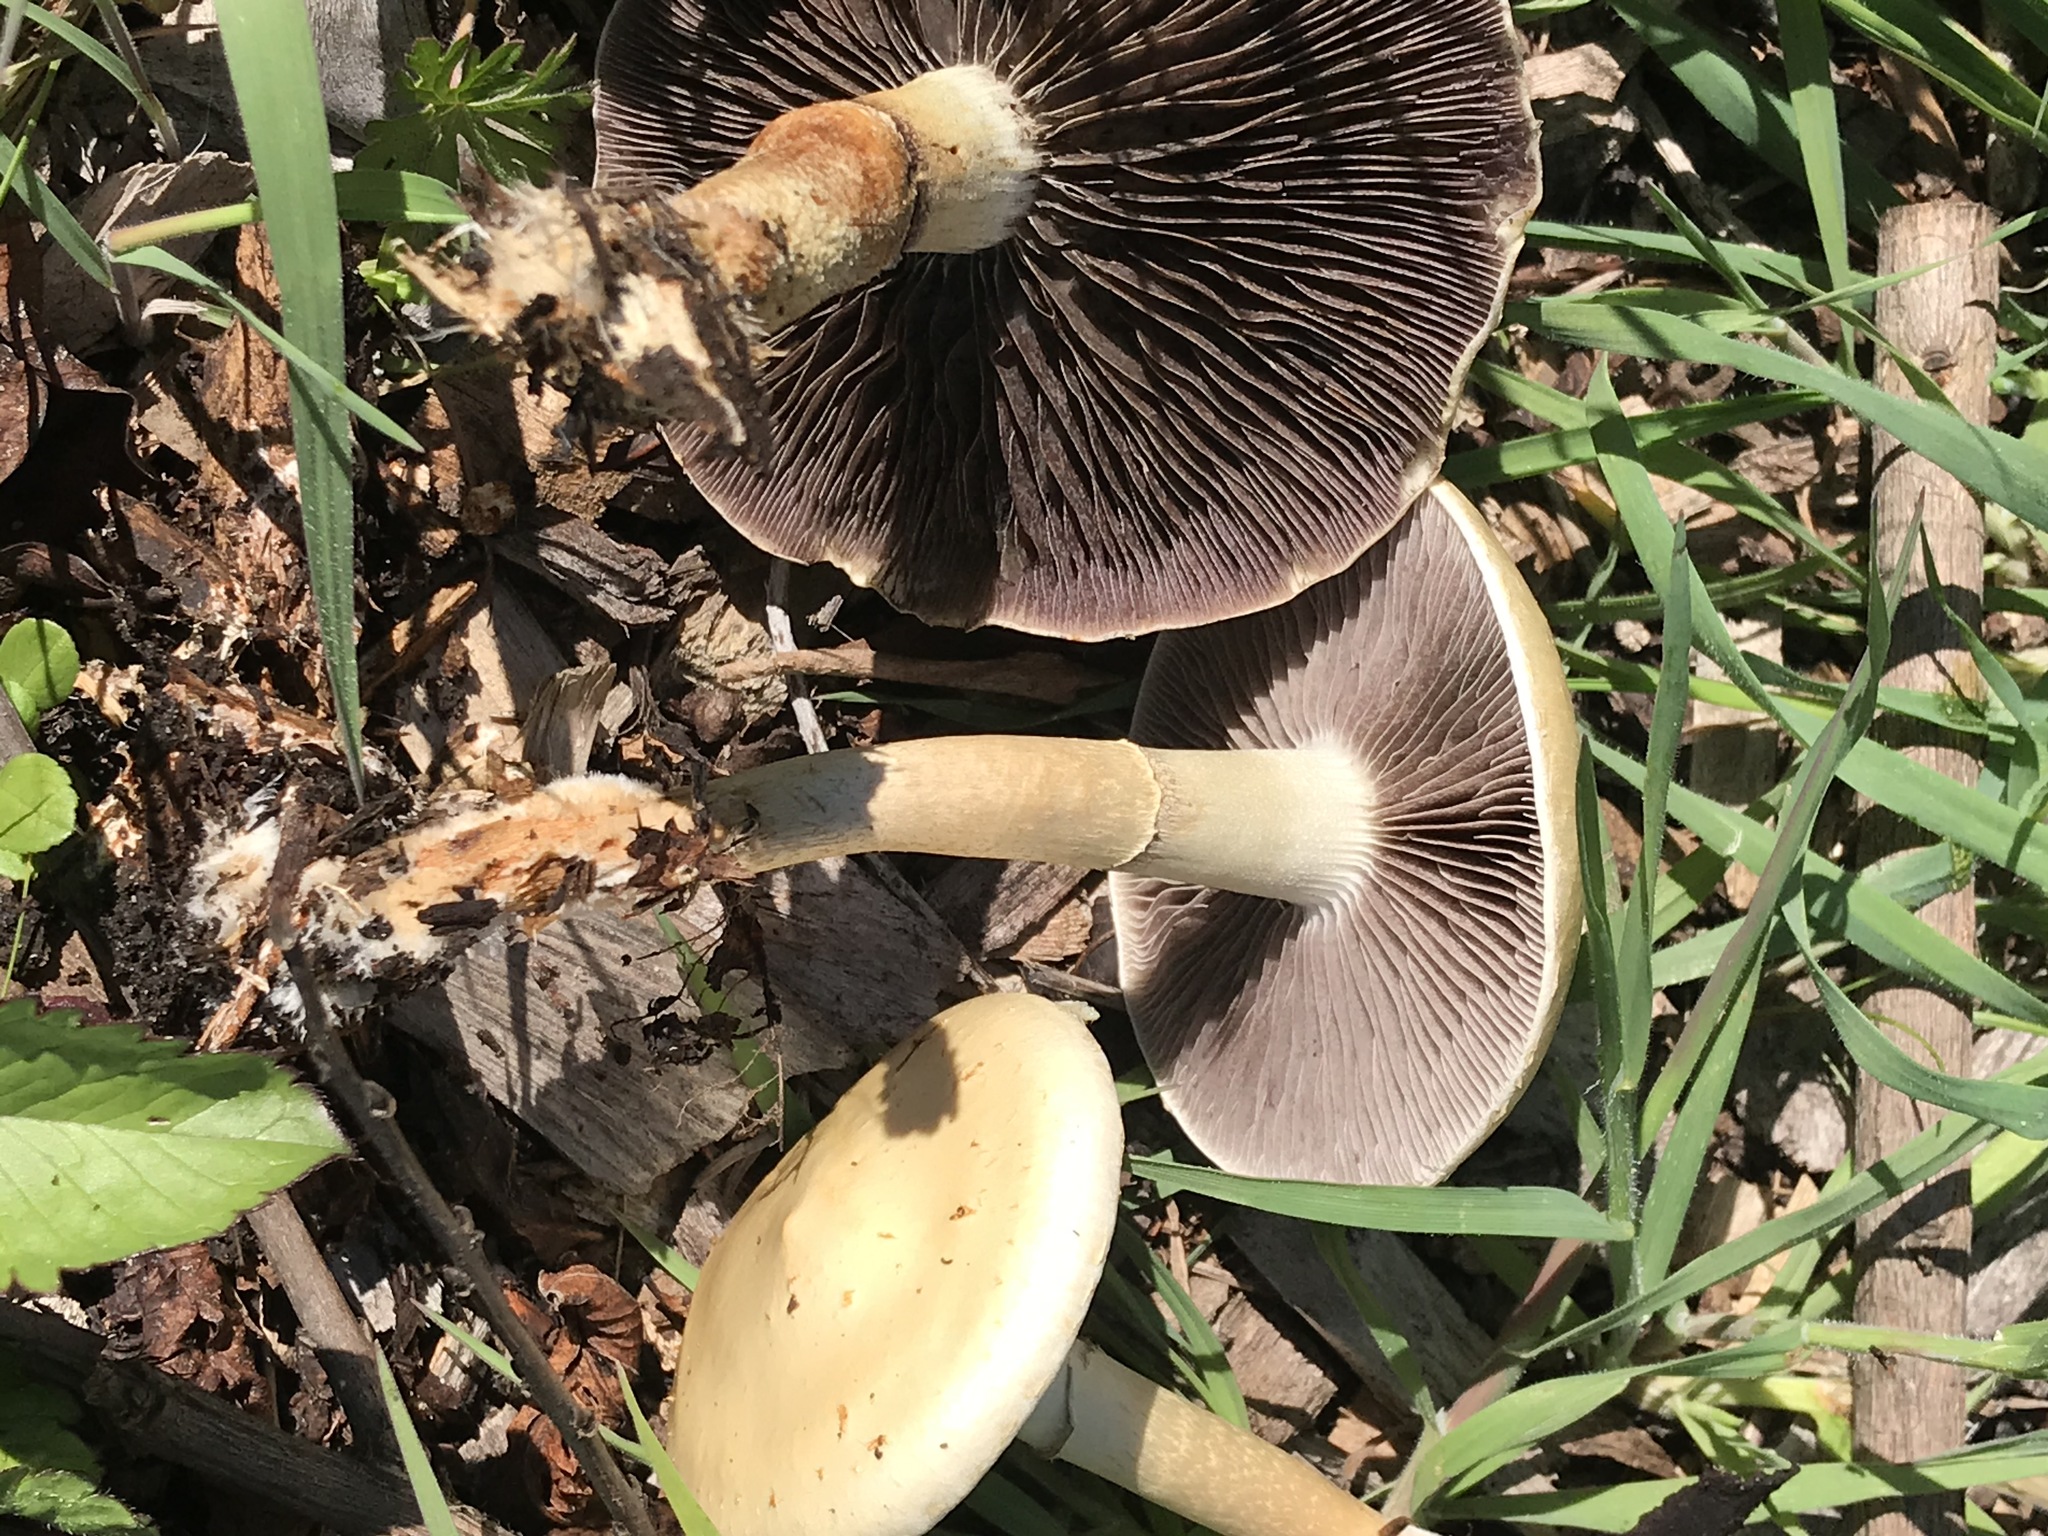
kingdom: Fungi
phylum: Basidiomycota
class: Agaricomycetes
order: Agaricales
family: Strophariaceae
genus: Leratiomyces
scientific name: Leratiomyces percevalii
